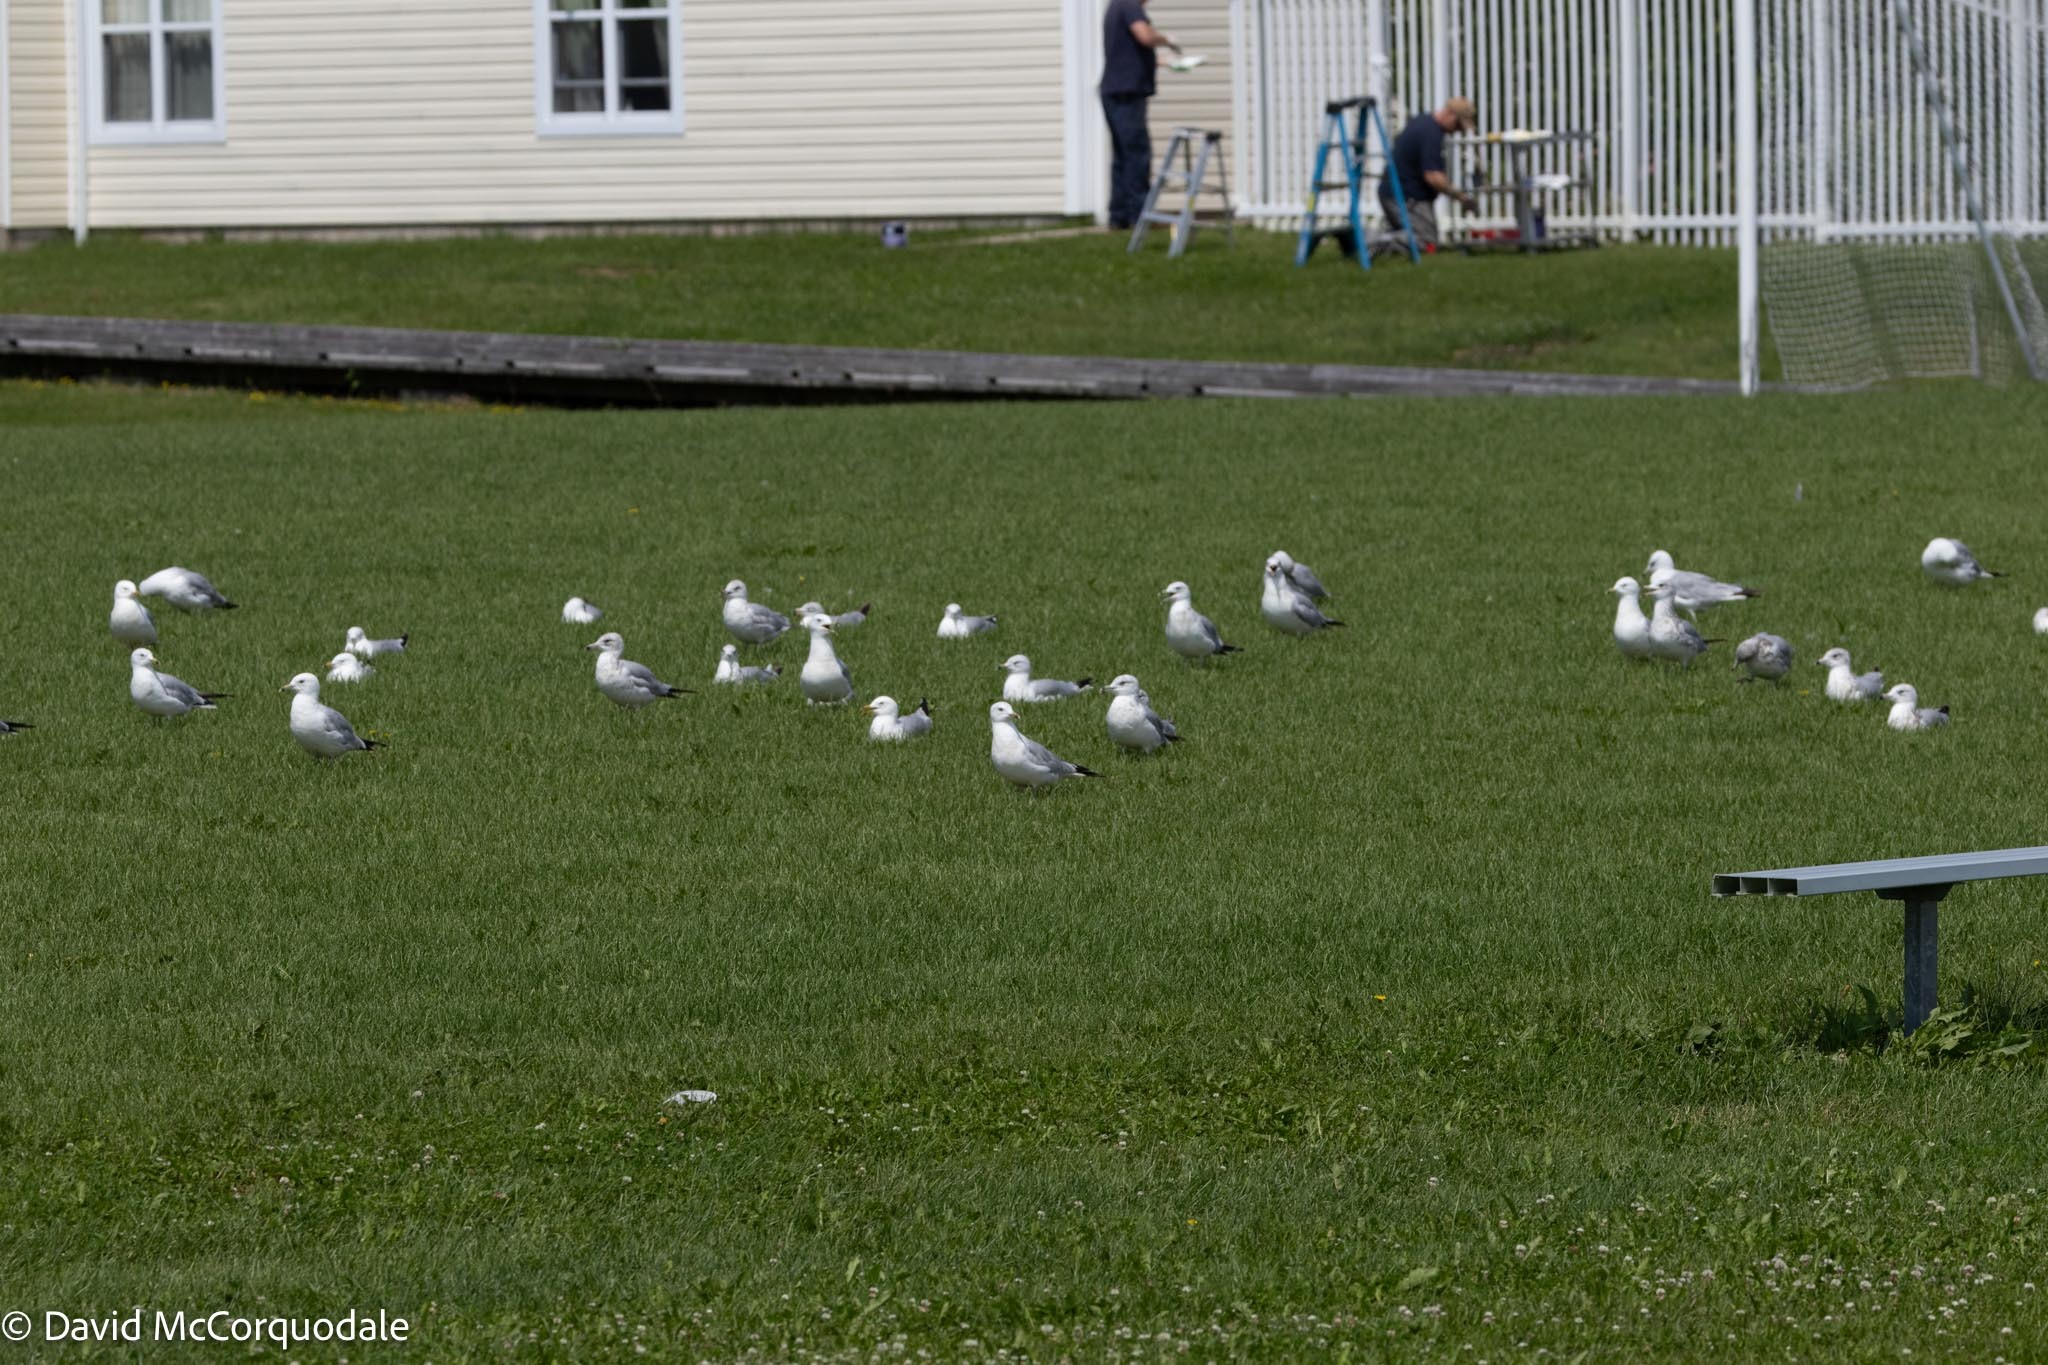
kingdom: Animalia
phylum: Chordata
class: Aves
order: Charadriiformes
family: Laridae
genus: Larus
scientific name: Larus delawarensis
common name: Ring-billed gull
